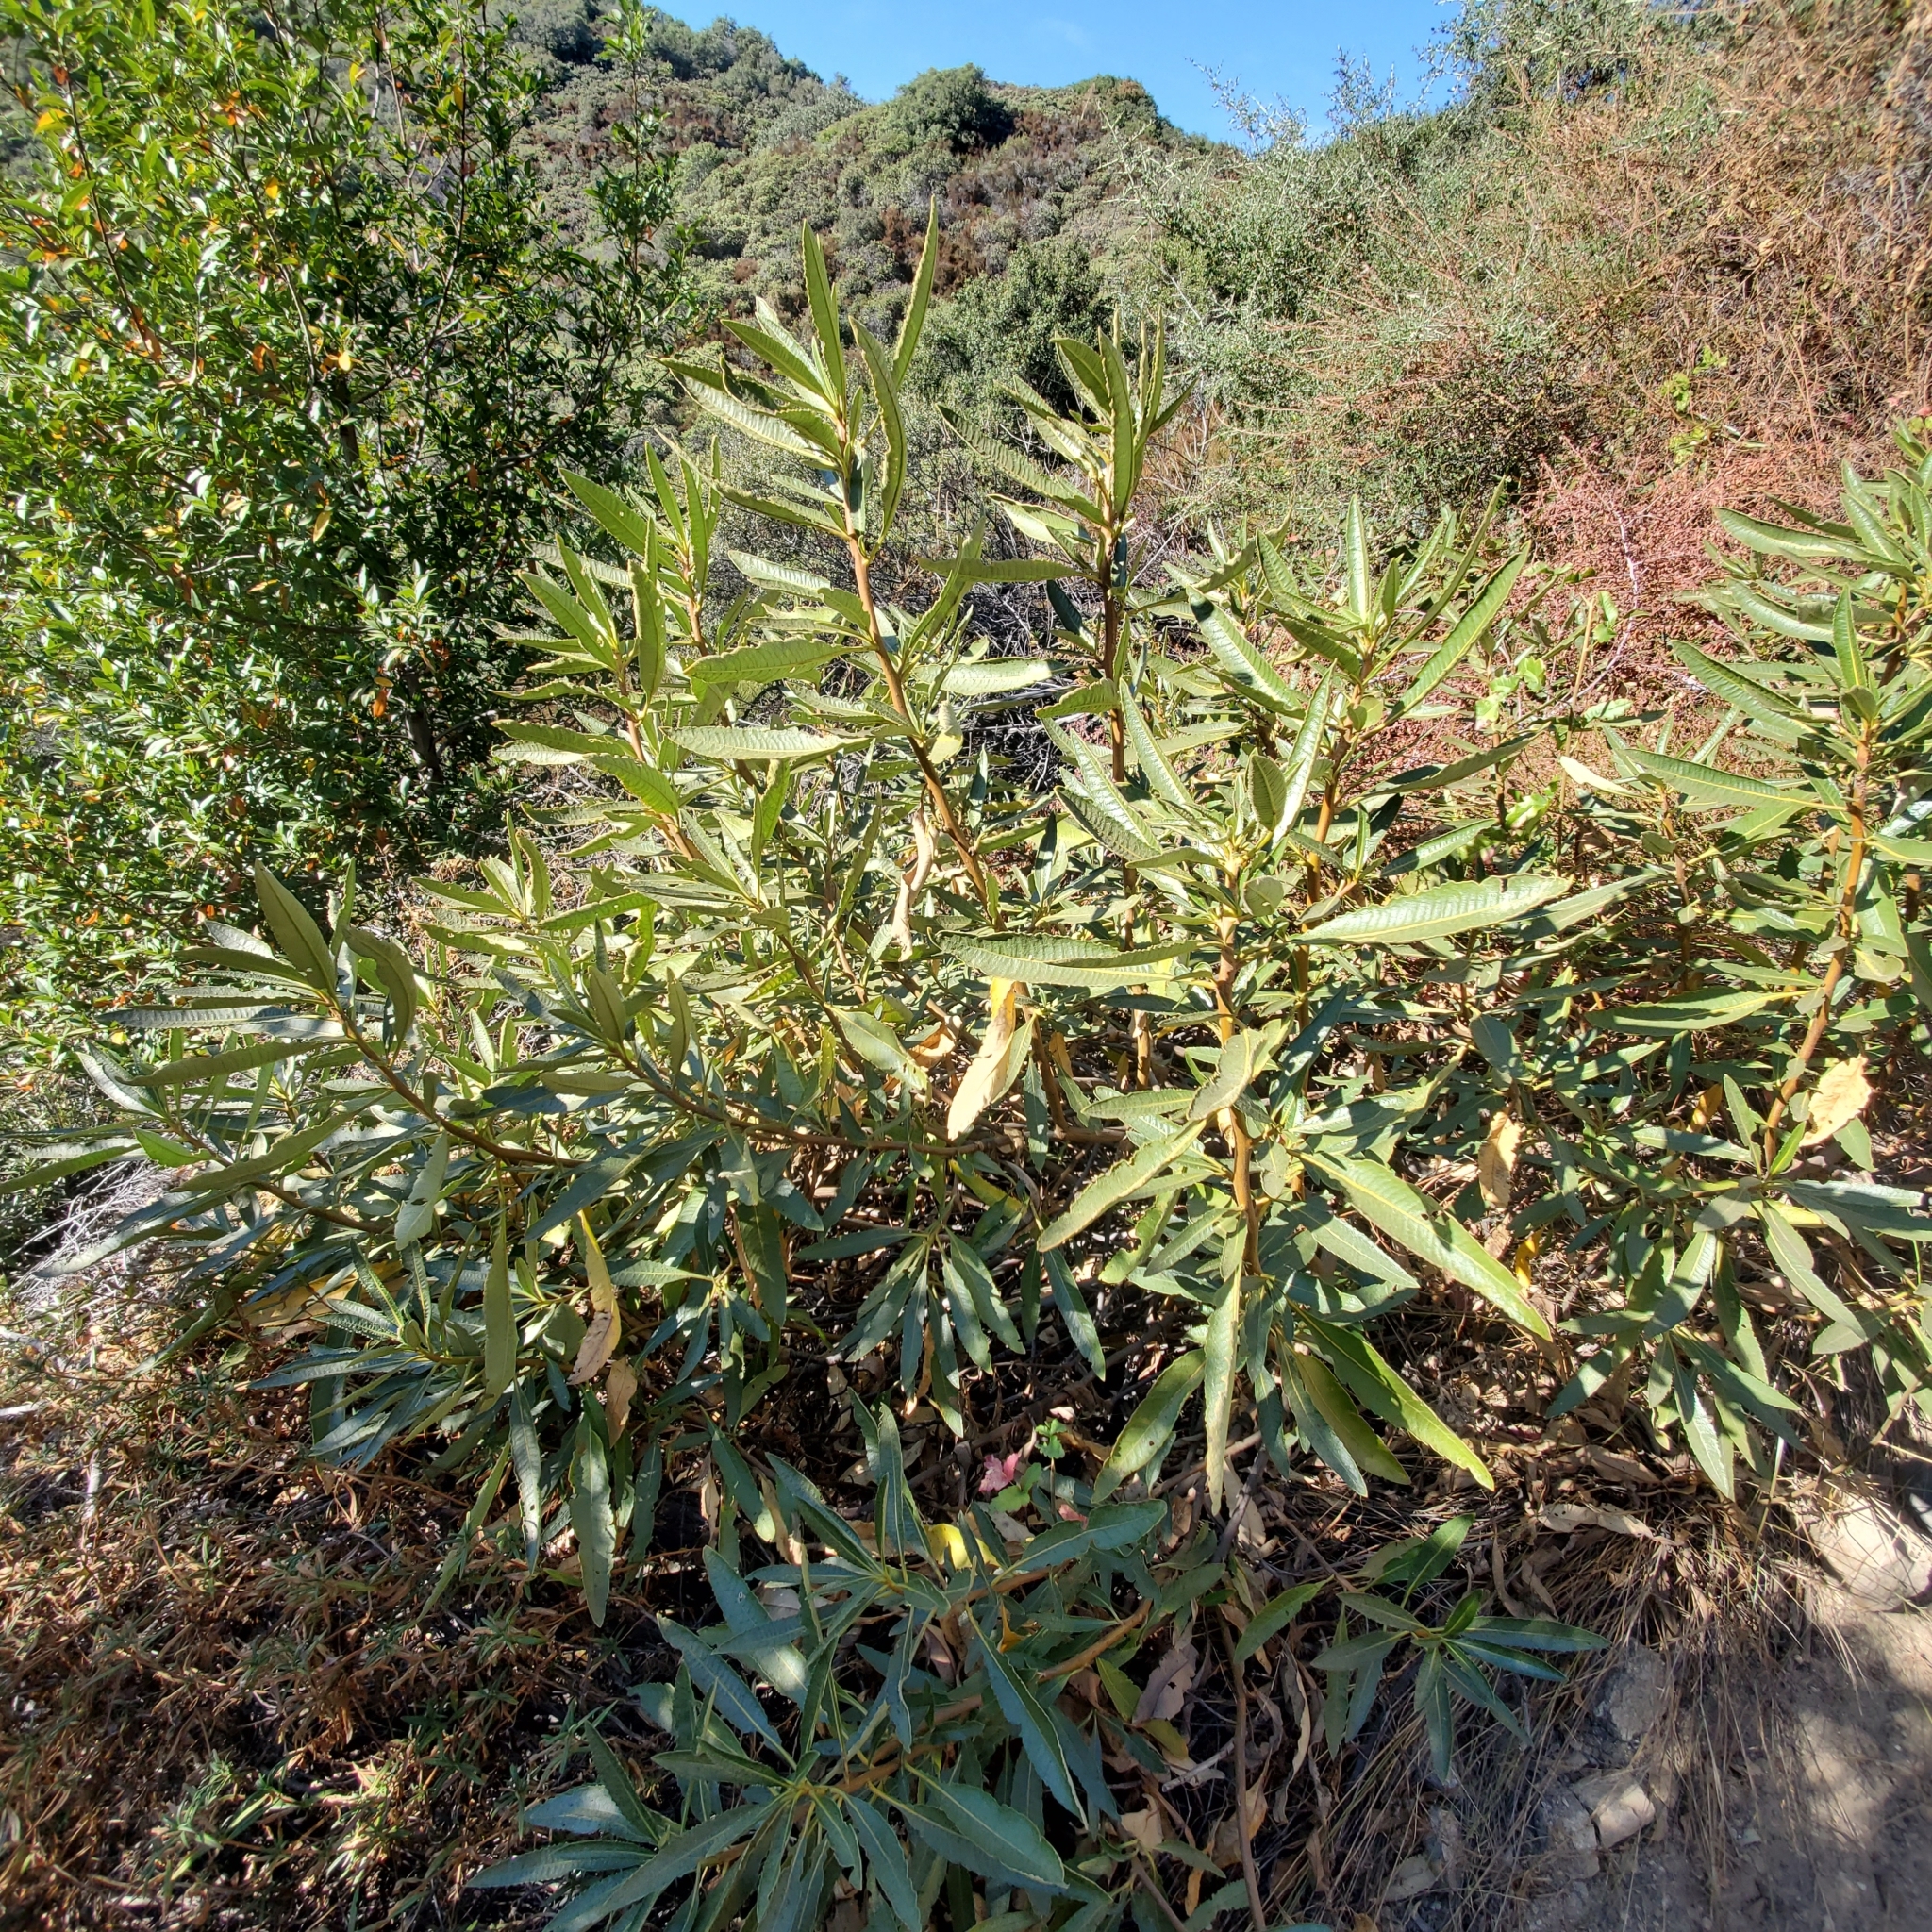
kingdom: Plantae
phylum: Tracheophyta
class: Magnoliopsida
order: Boraginales
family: Namaceae
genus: Eriodictyon
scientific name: Eriodictyon trichocalyx
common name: Hairy yerba-santa
